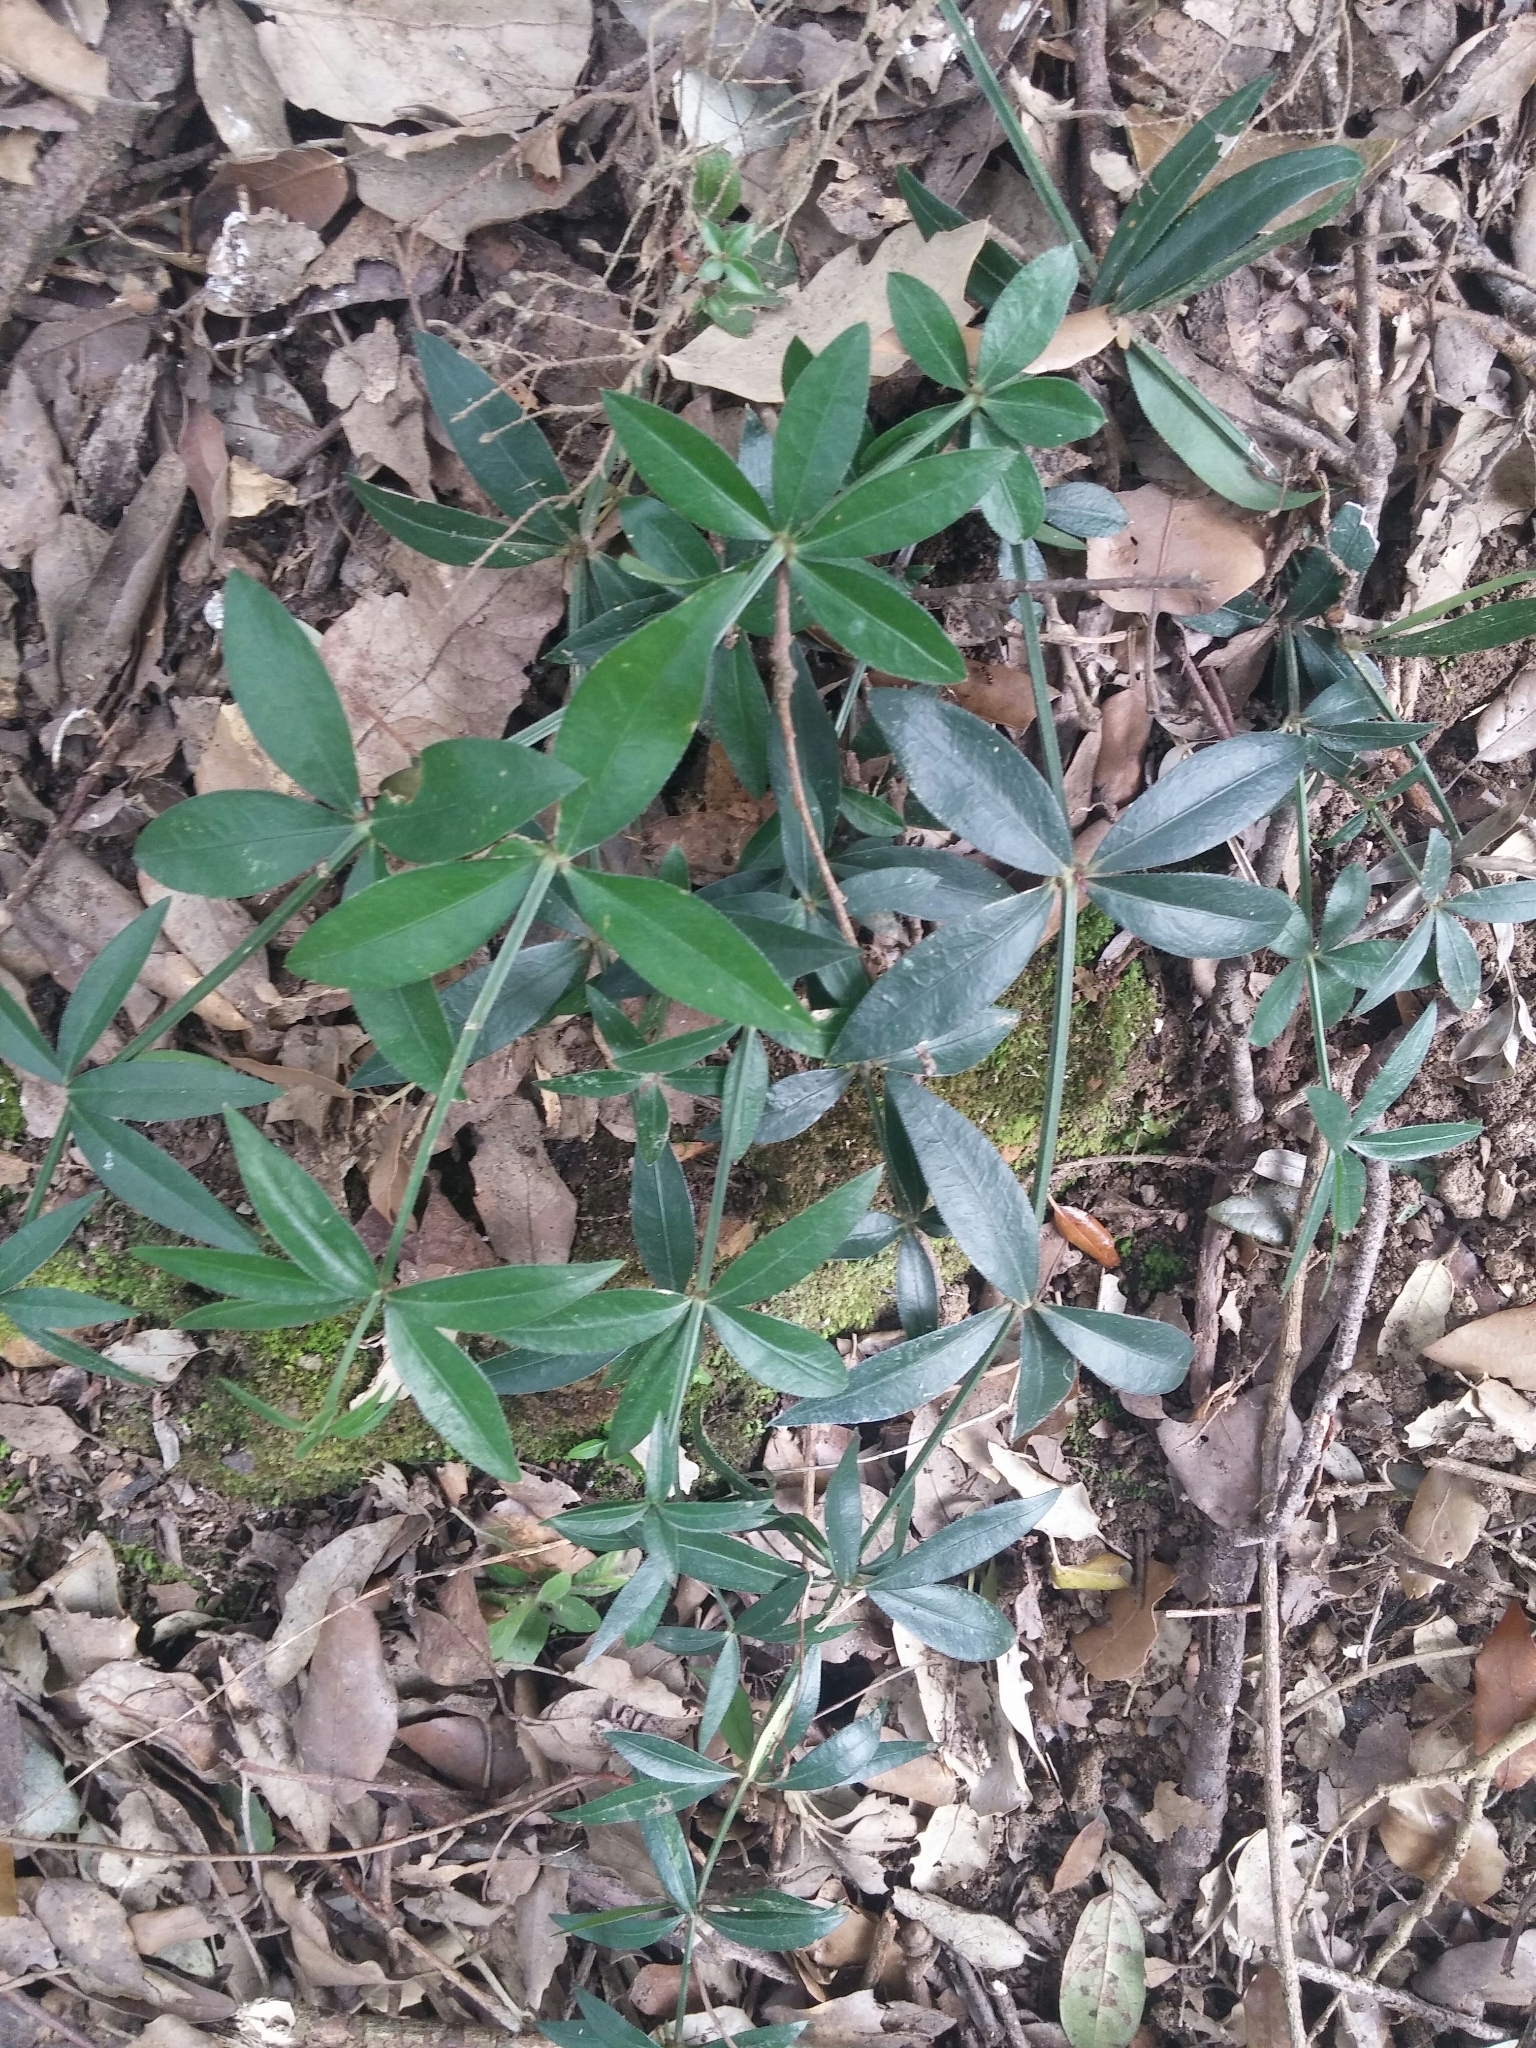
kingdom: Plantae
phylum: Tracheophyta
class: Magnoliopsida
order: Gentianales
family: Rubiaceae
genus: Rubia
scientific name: Rubia peregrina
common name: Wild madder
